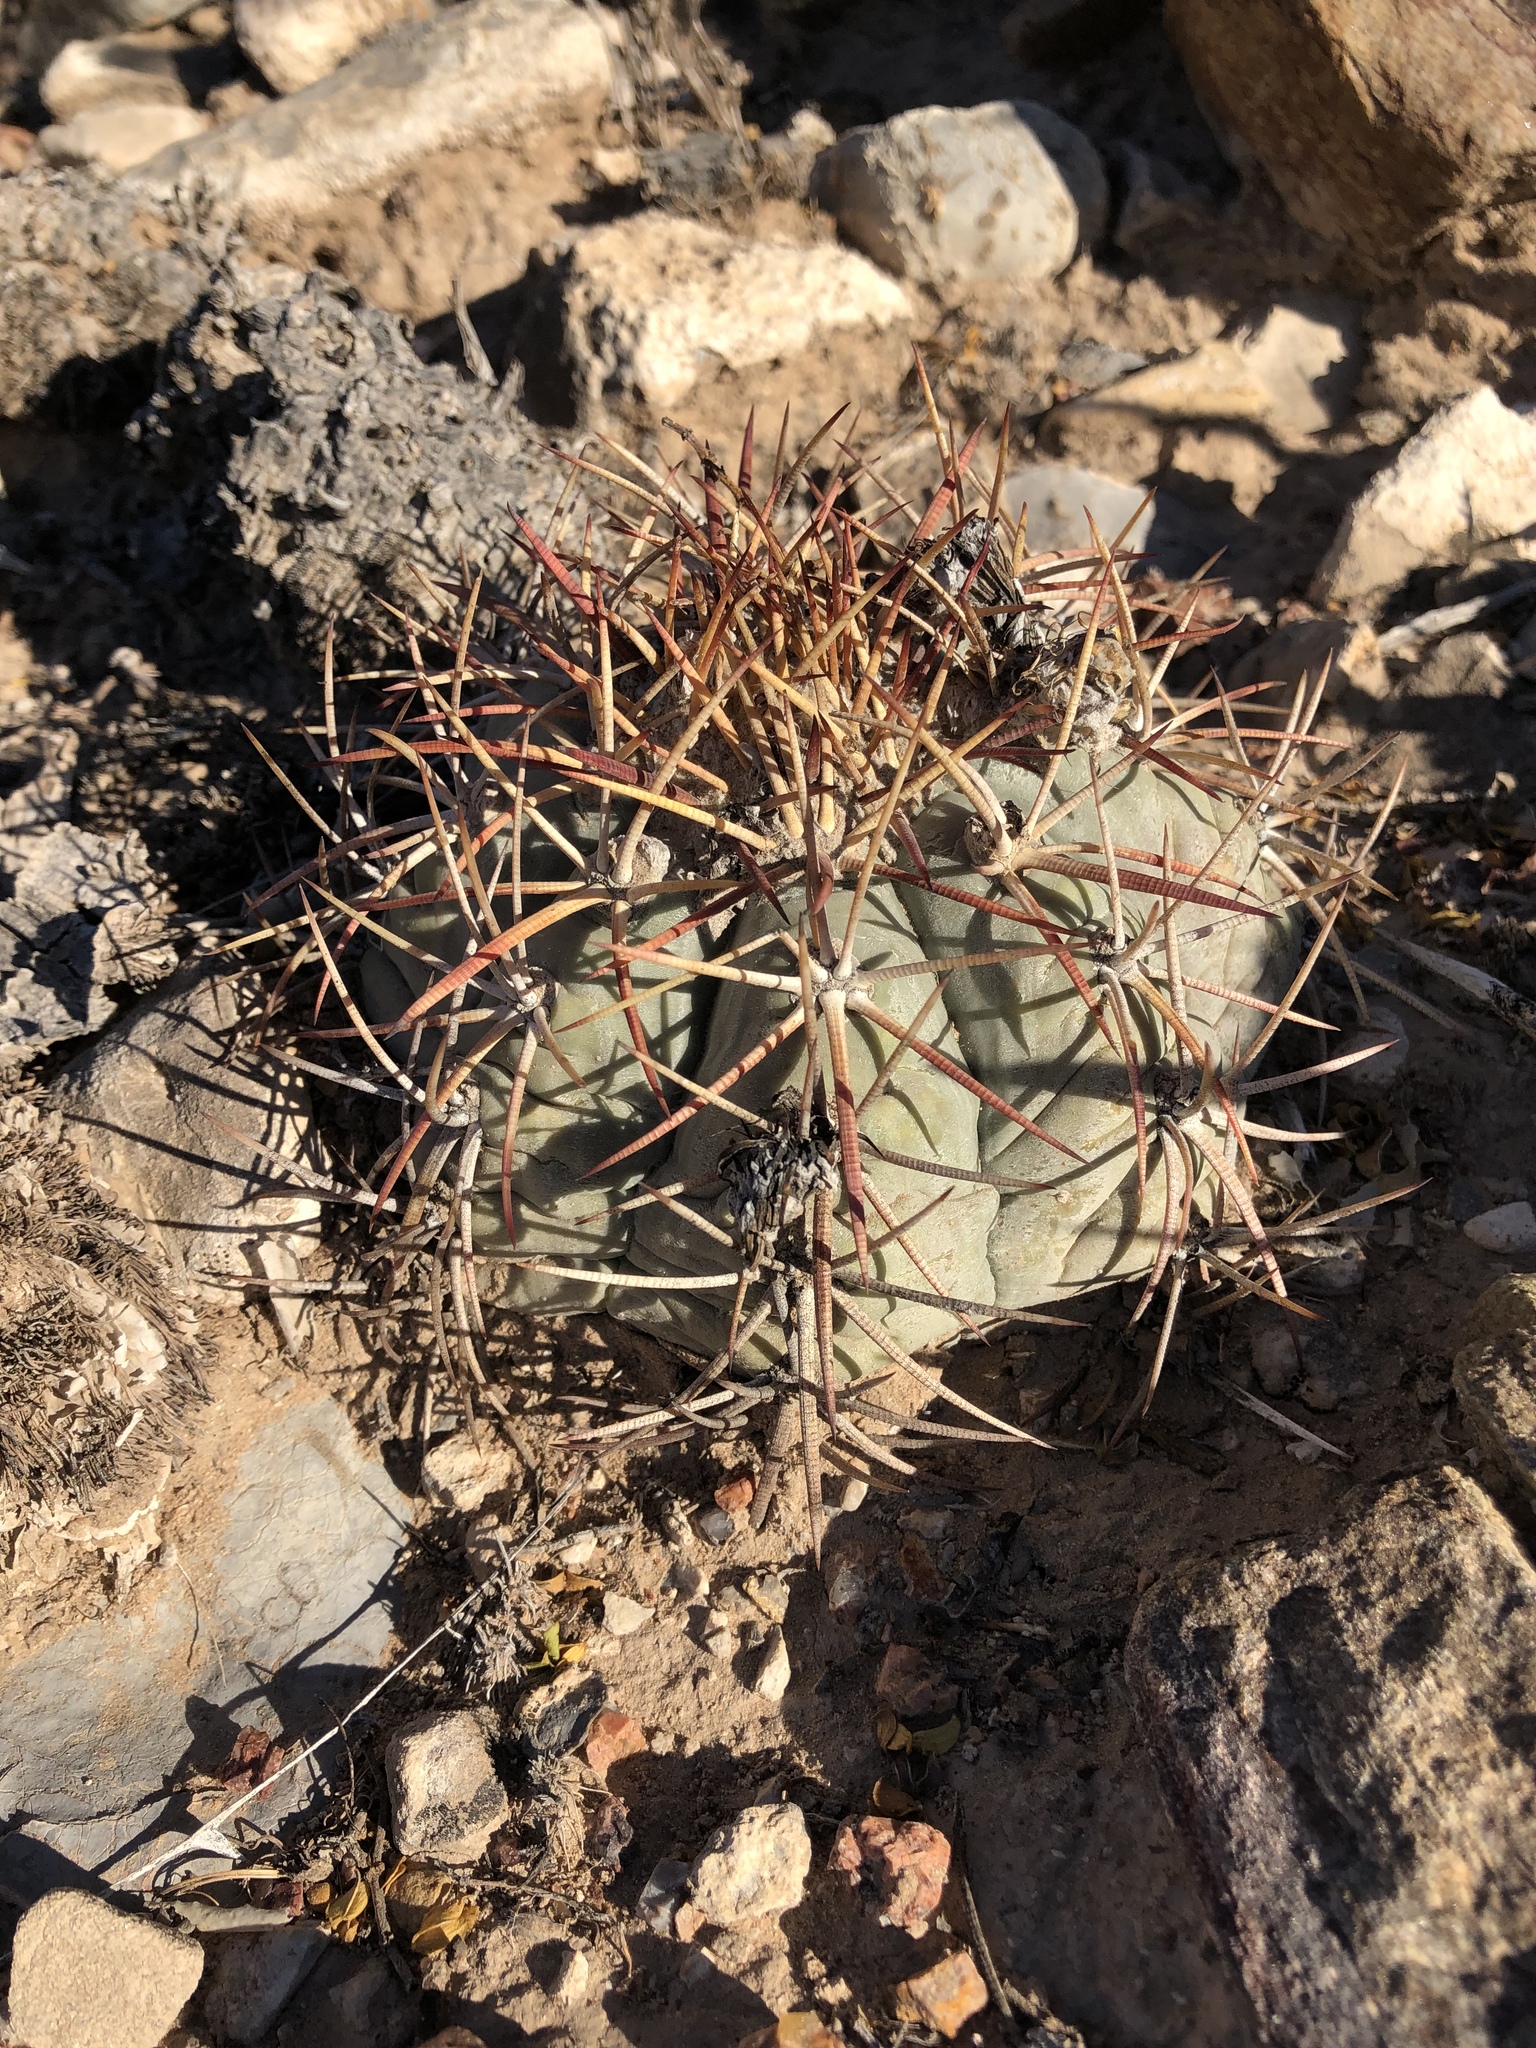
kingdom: Plantae
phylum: Tracheophyta
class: Magnoliopsida
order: Caryophyllales
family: Cactaceae
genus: Echinocactus
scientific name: Echinocactus horizonthalonius
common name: Devilshead
